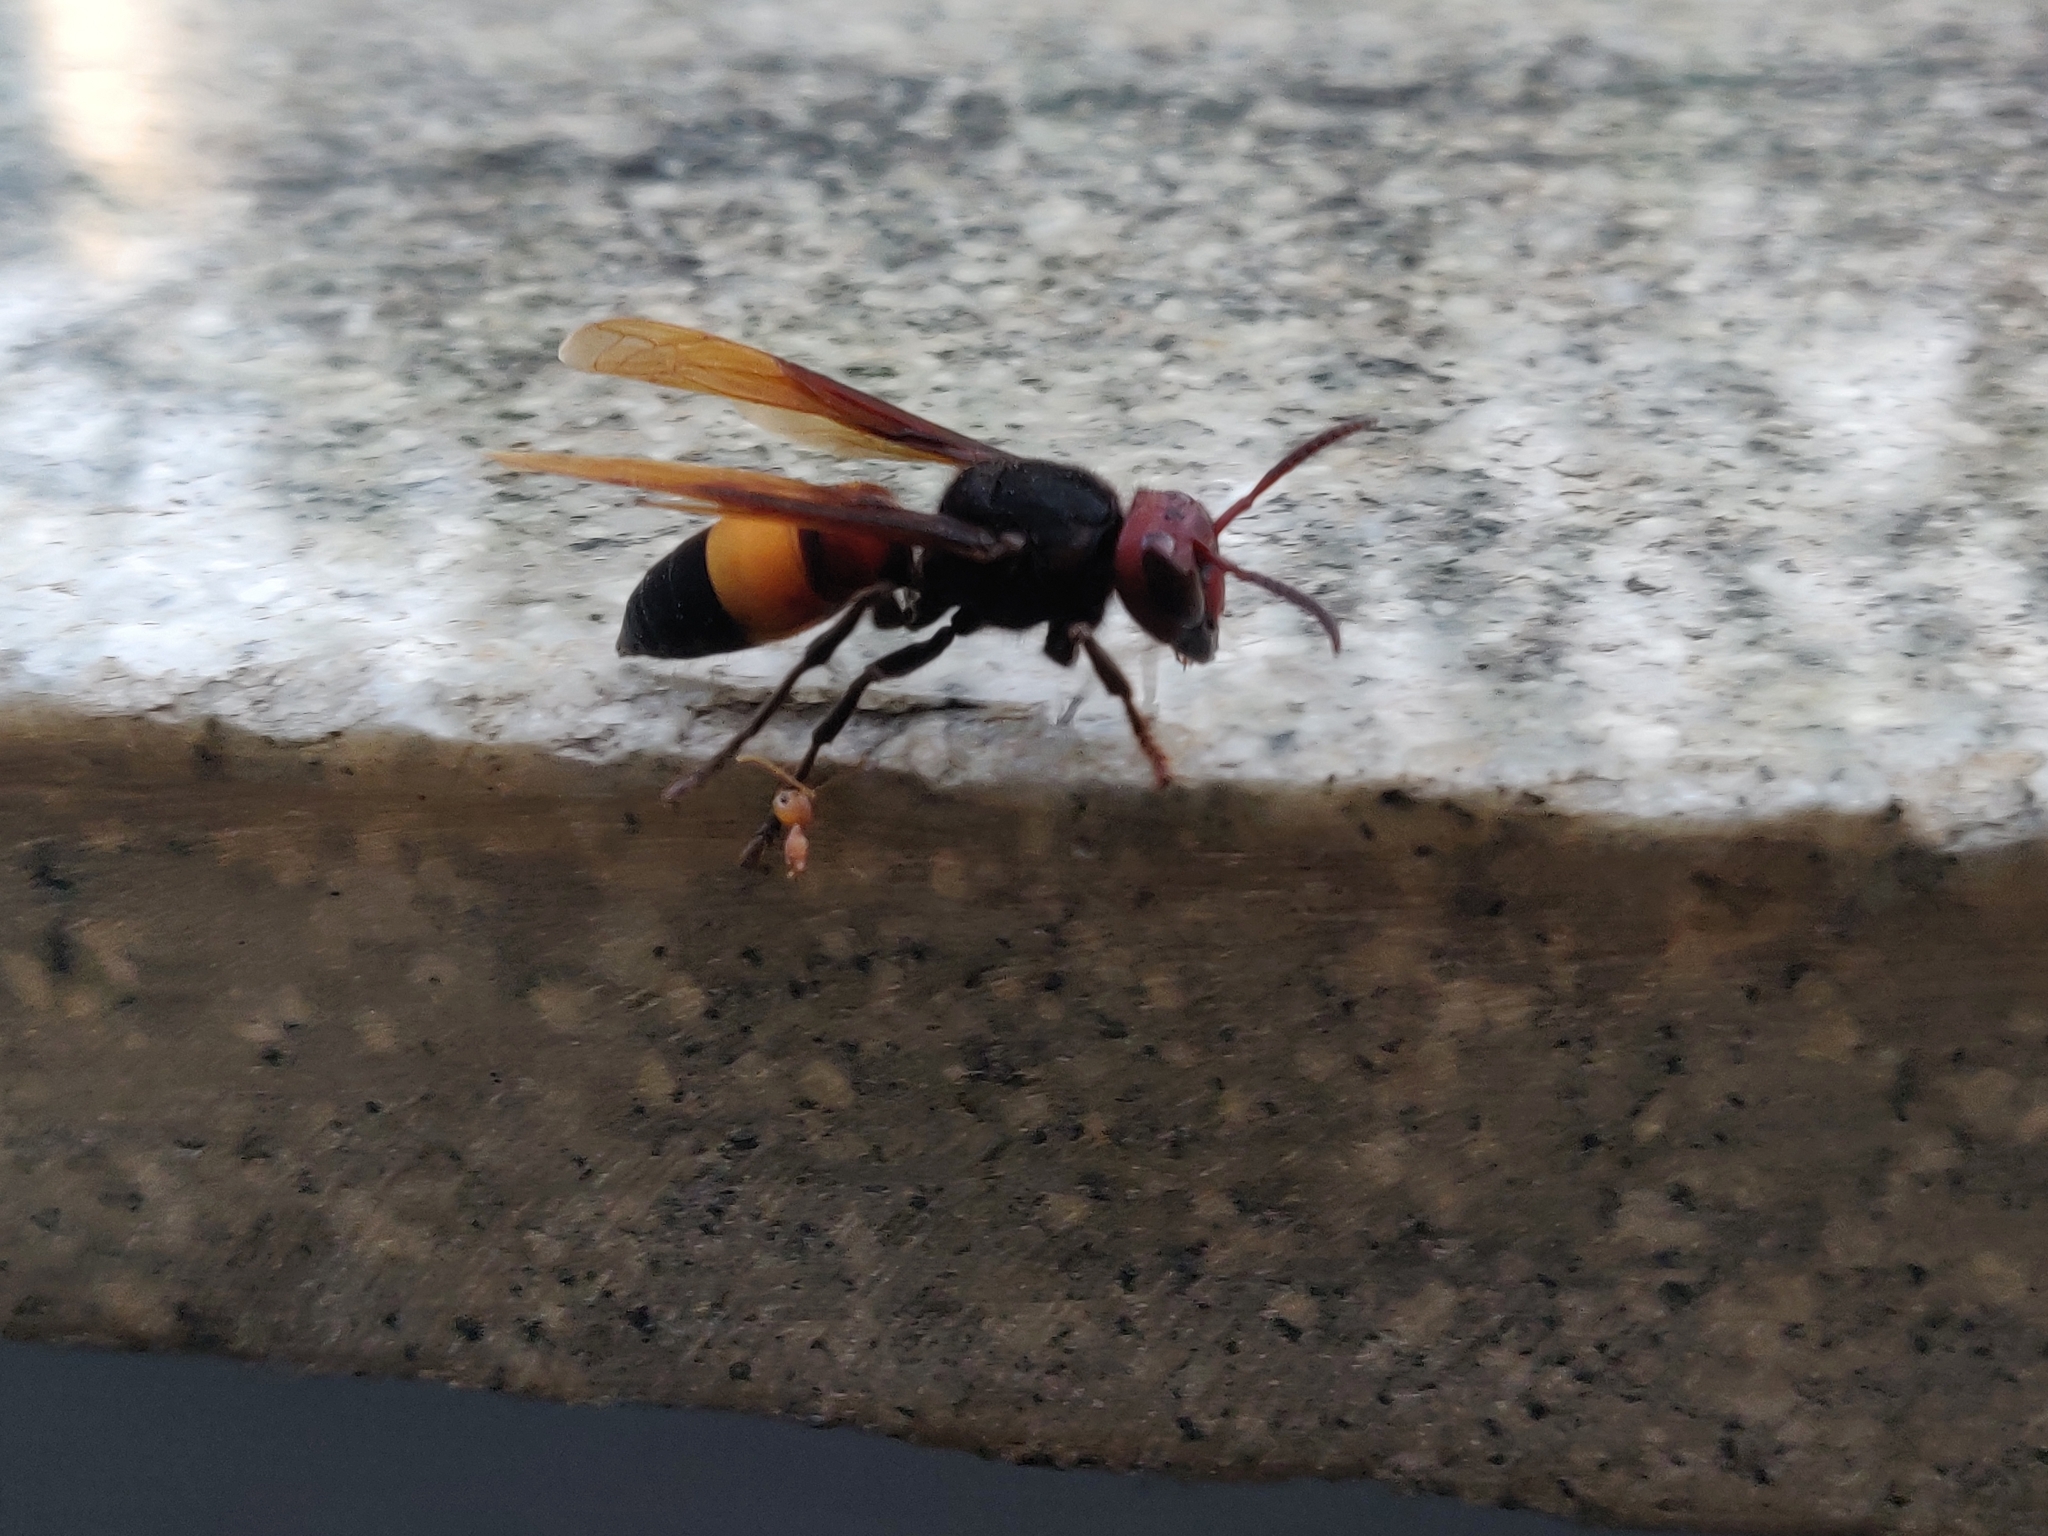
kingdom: Animalia
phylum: Arthropoda
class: Insecta
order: Hymenoptera
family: Vespidae
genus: Vespa
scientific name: Vespa tropica
